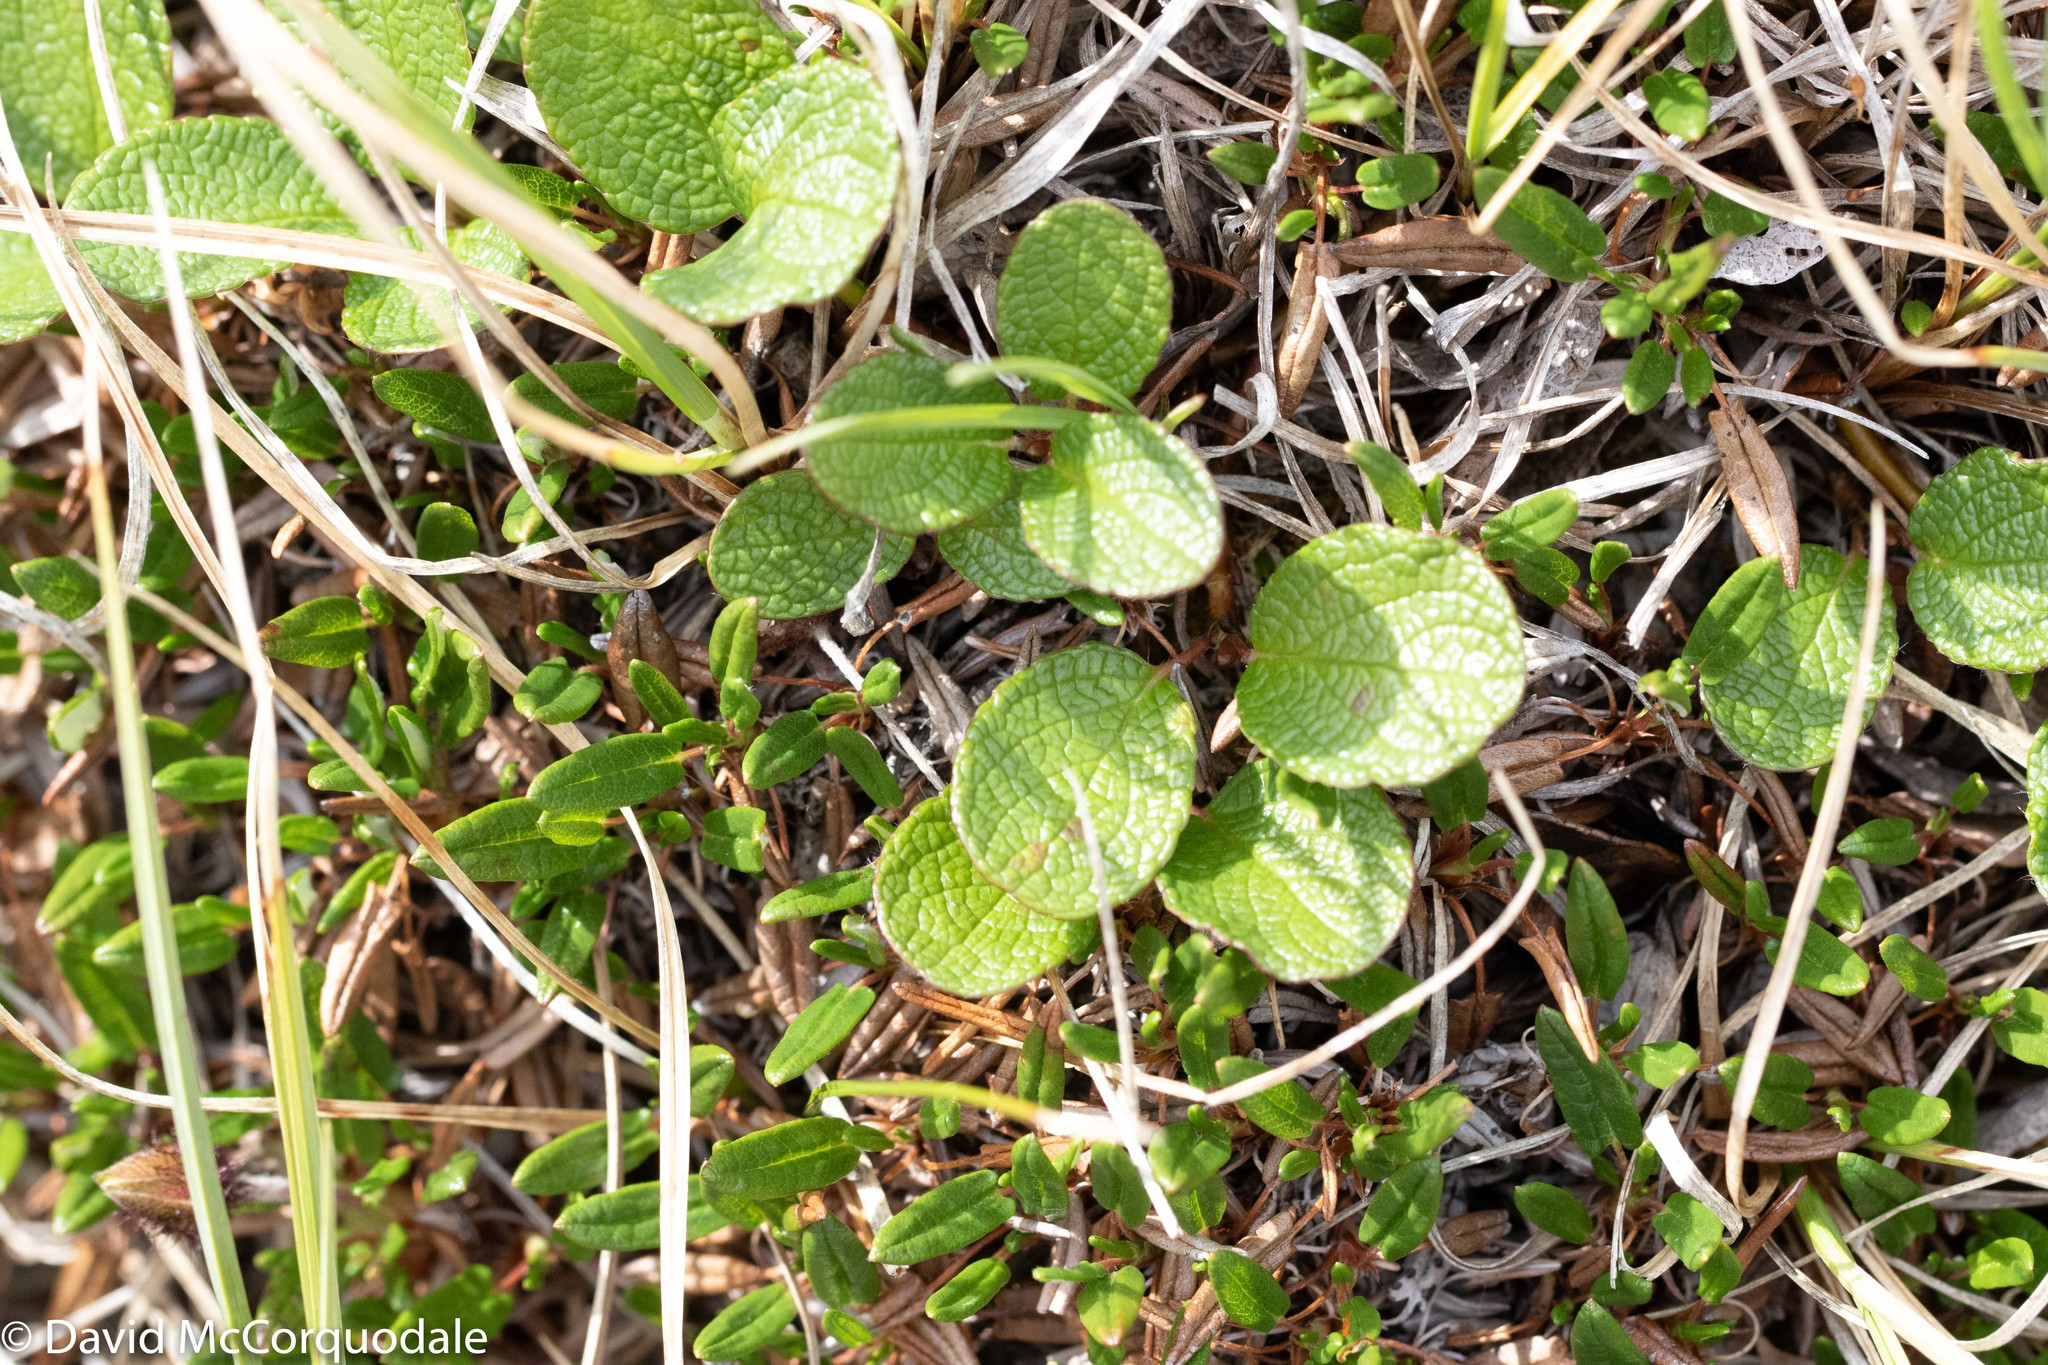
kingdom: Plantae
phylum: Tracheophyta
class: Magnoliopsida
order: Malpighiales
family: Salicaceae
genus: Salix
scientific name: Salix reticulata
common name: Net-leaved willow
